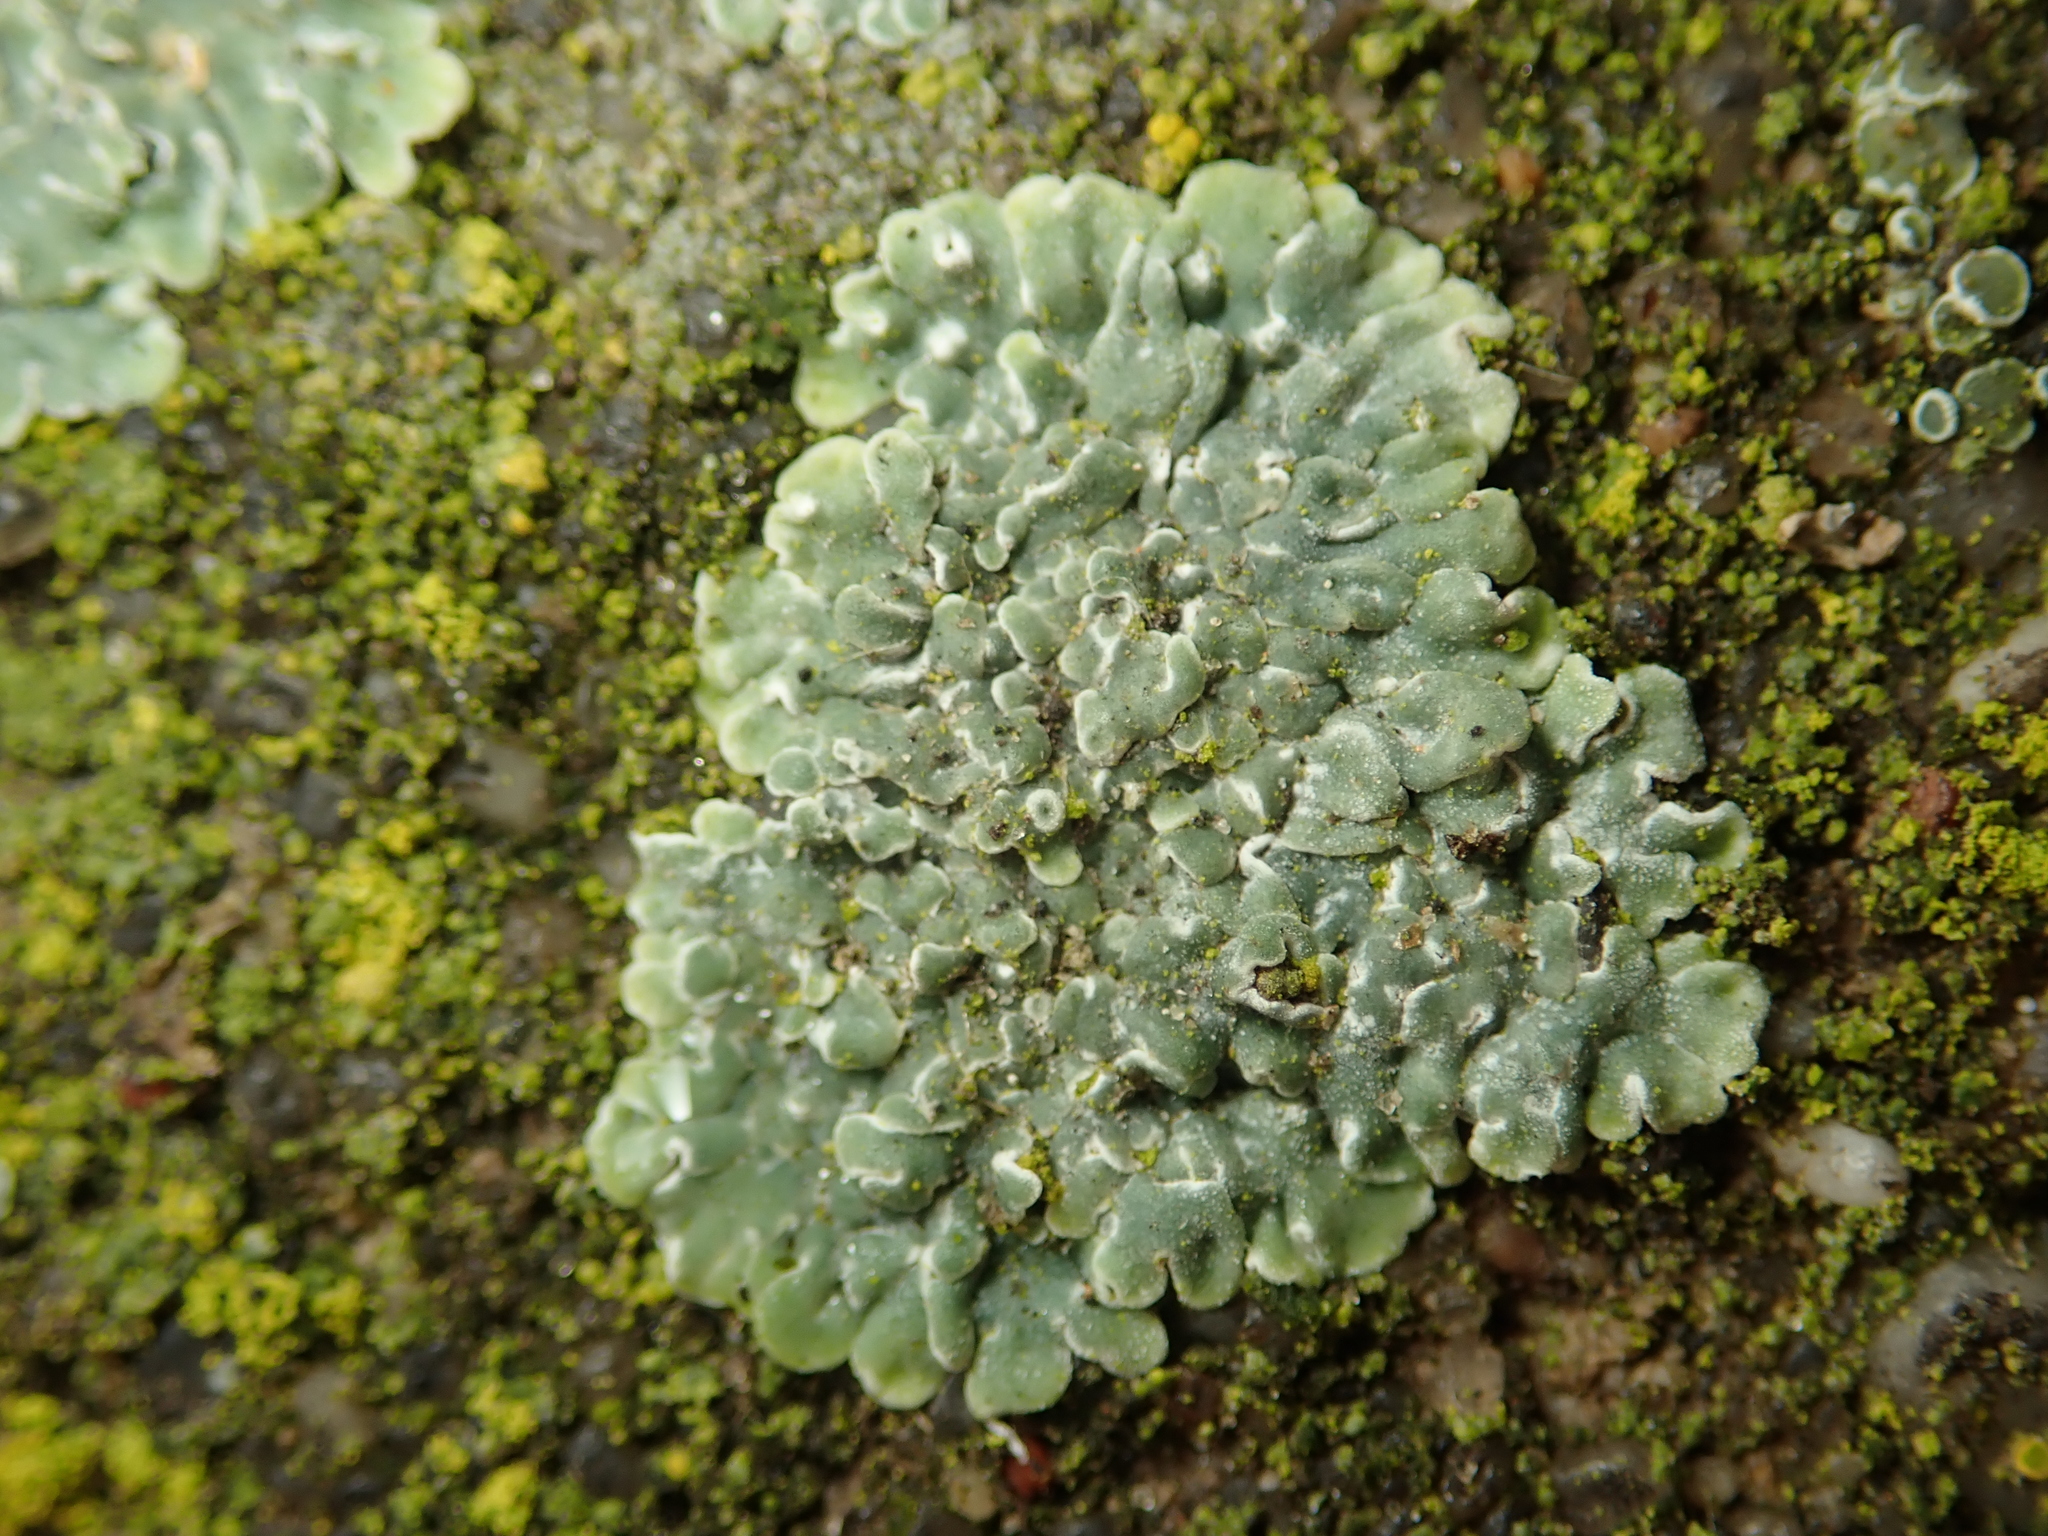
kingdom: Fungi
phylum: Ascomycota
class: Lecanoromycetes
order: Lecanorales
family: Lecanoraceae
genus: Protoparmeliopsis
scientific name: Protoparmeliopsis muralis
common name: Stonewall rim lichen
